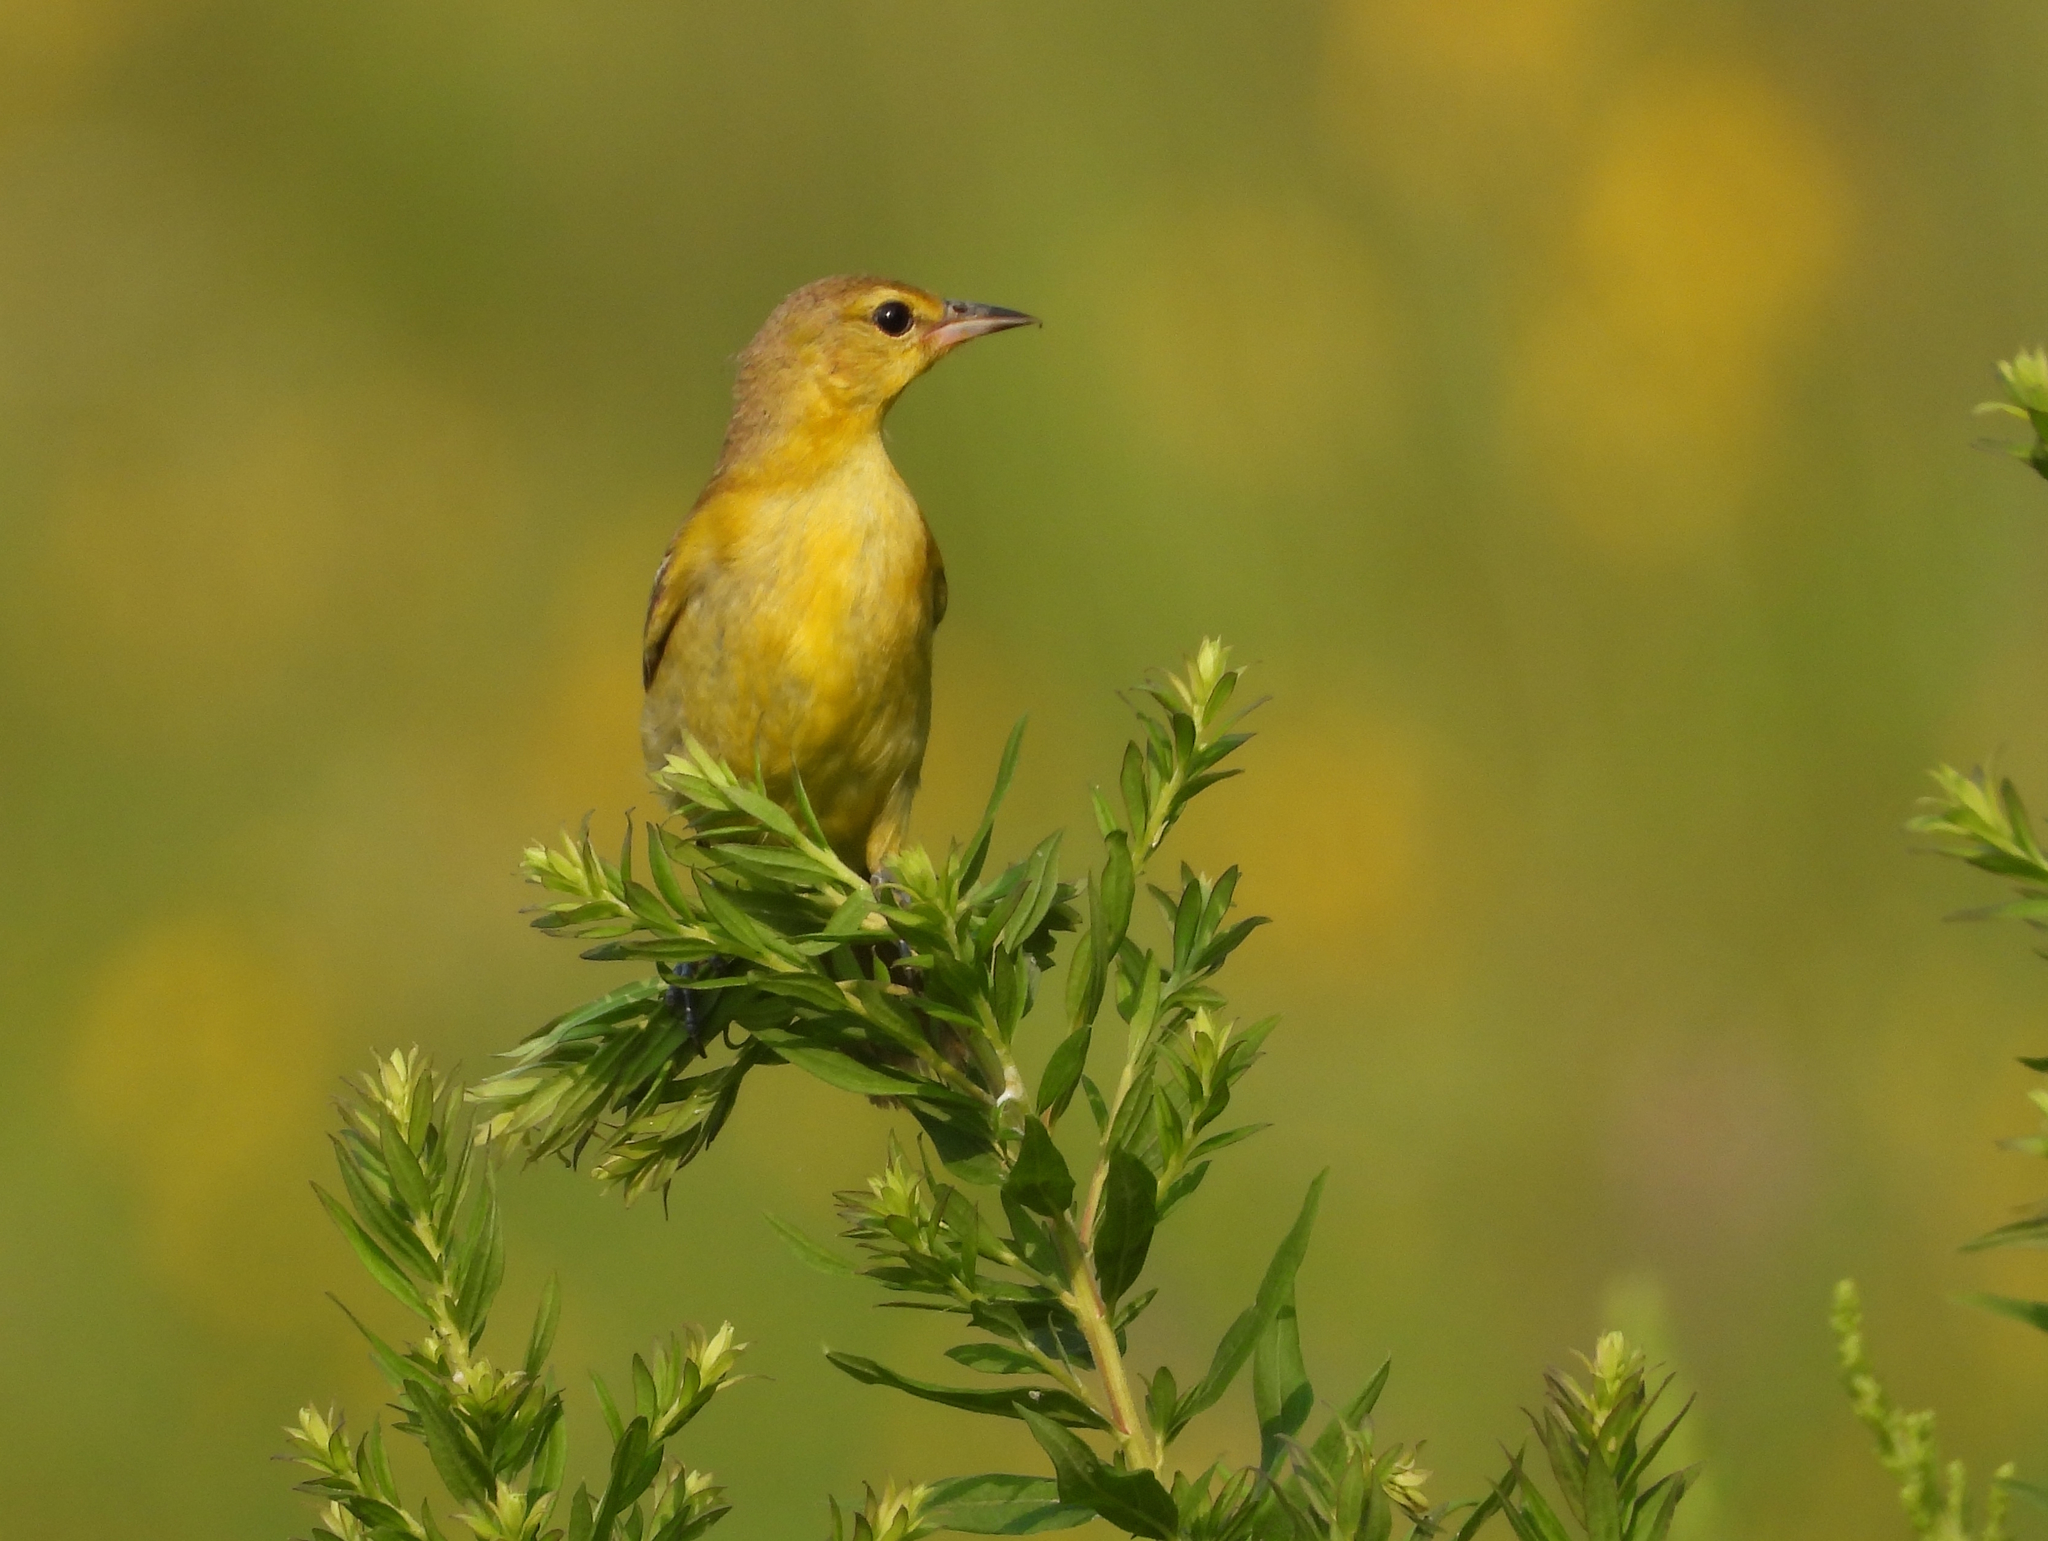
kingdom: Animalia
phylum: Chordata
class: Aves
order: Passeriformes
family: Icteridae
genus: Icterus
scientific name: Icterus spurius
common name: Orchard oriole
